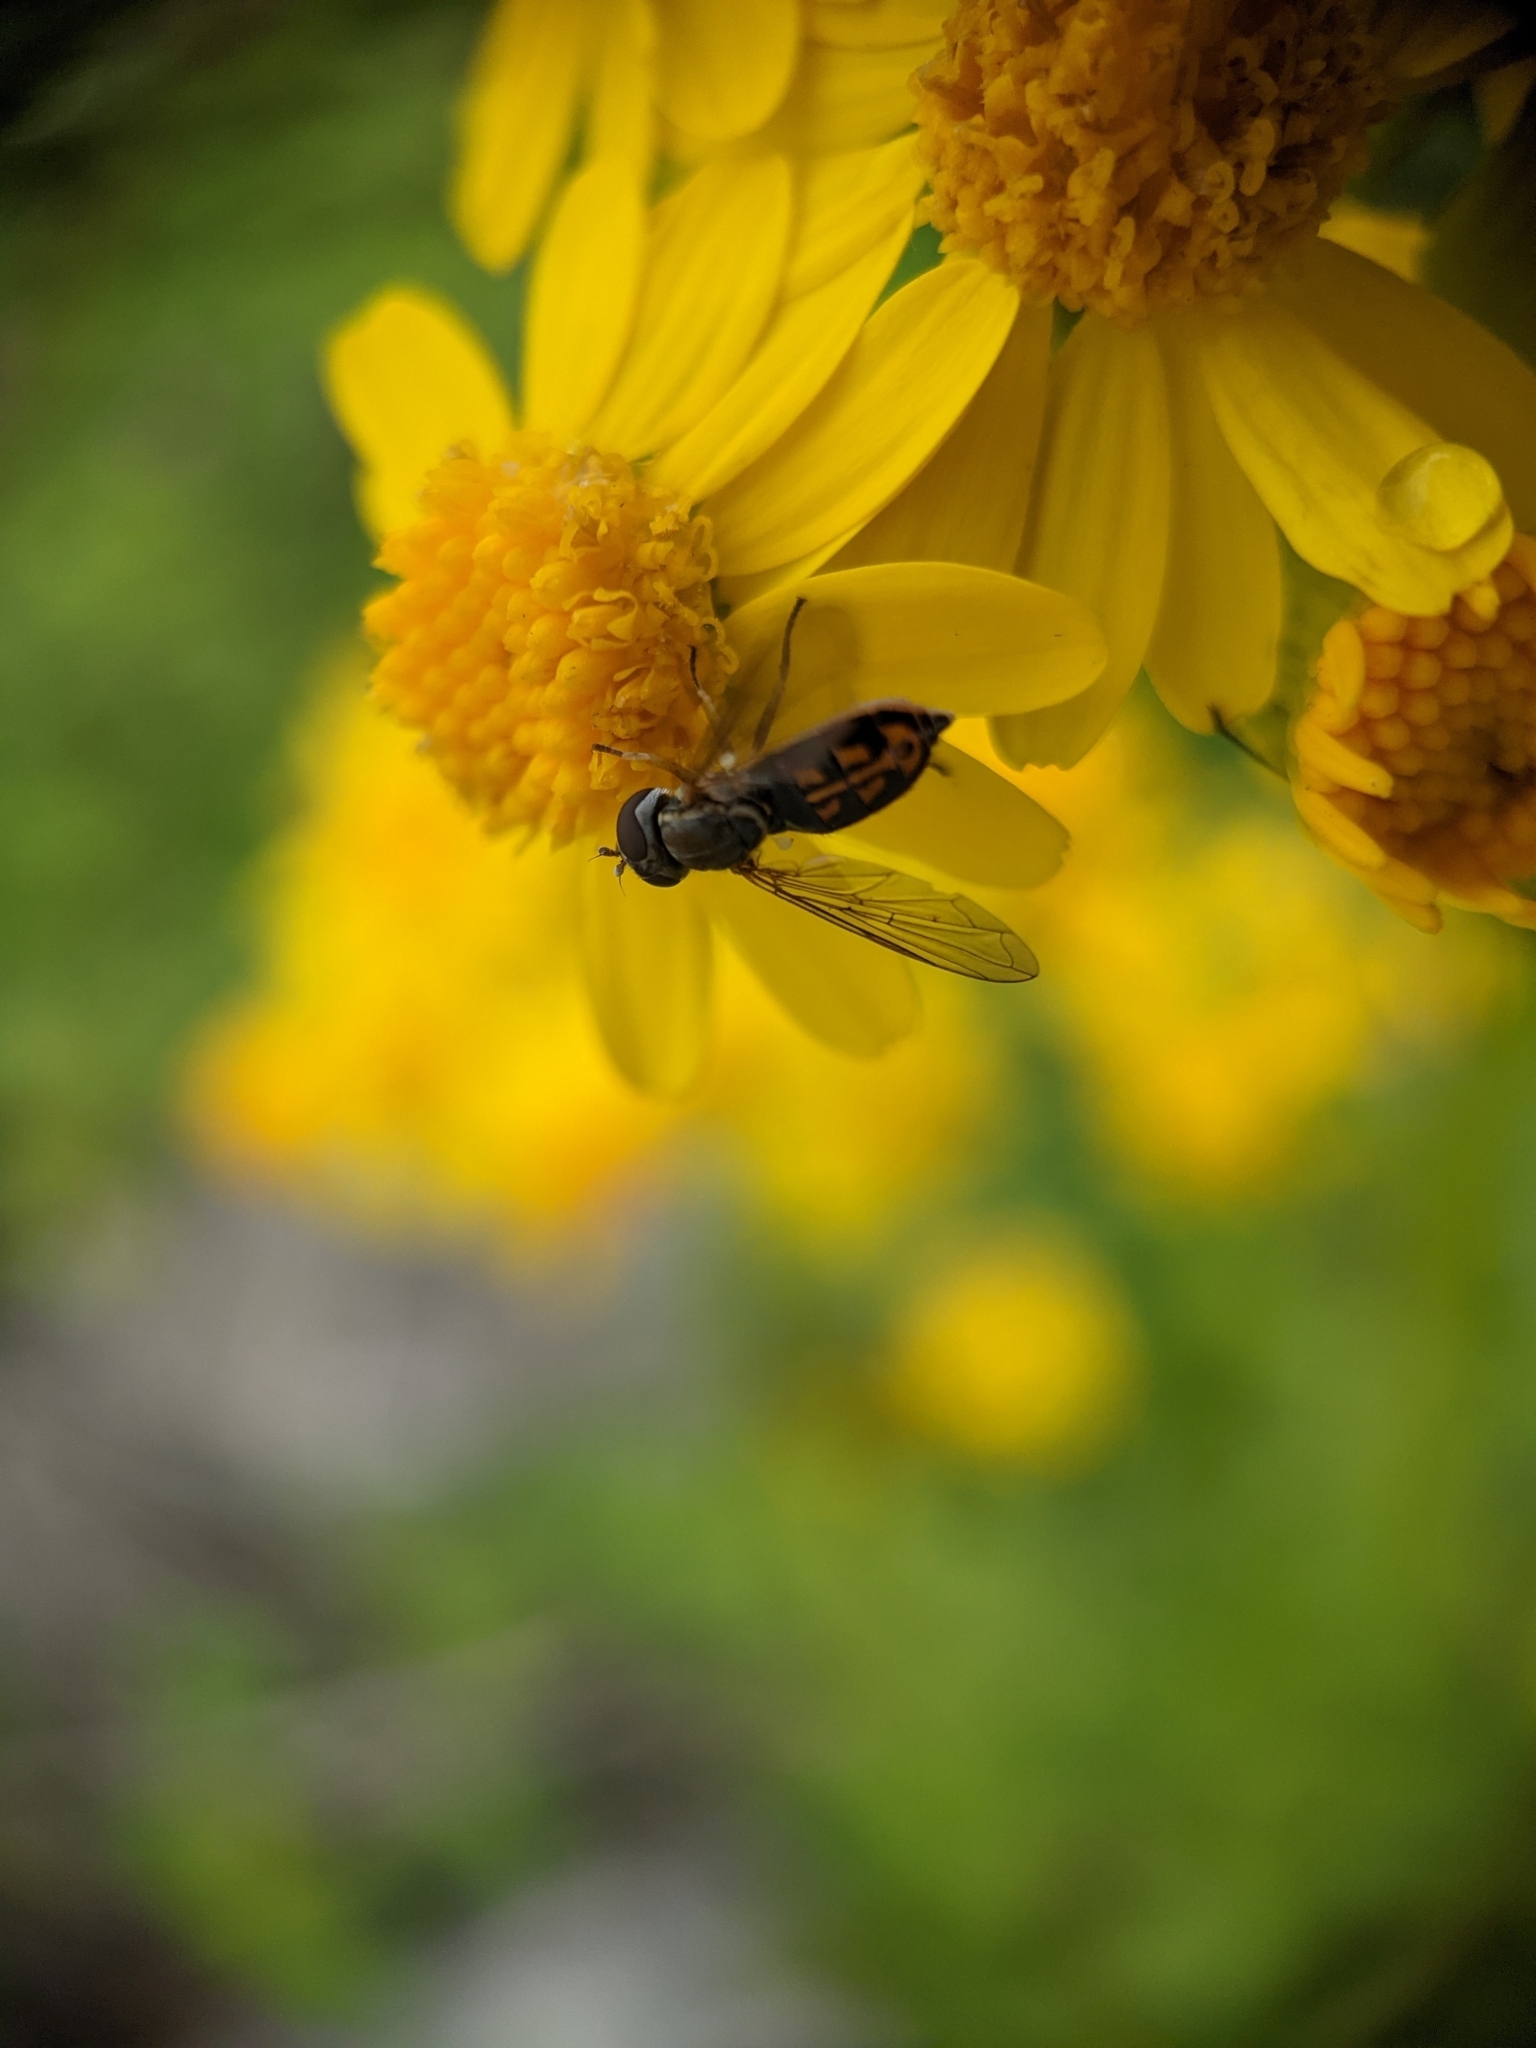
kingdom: Animalia
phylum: Arthropoda
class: Insecta
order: Diptera
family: Syrphidae
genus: Toxomerus
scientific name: Toxomerus marginatus
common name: Syrphid fly
